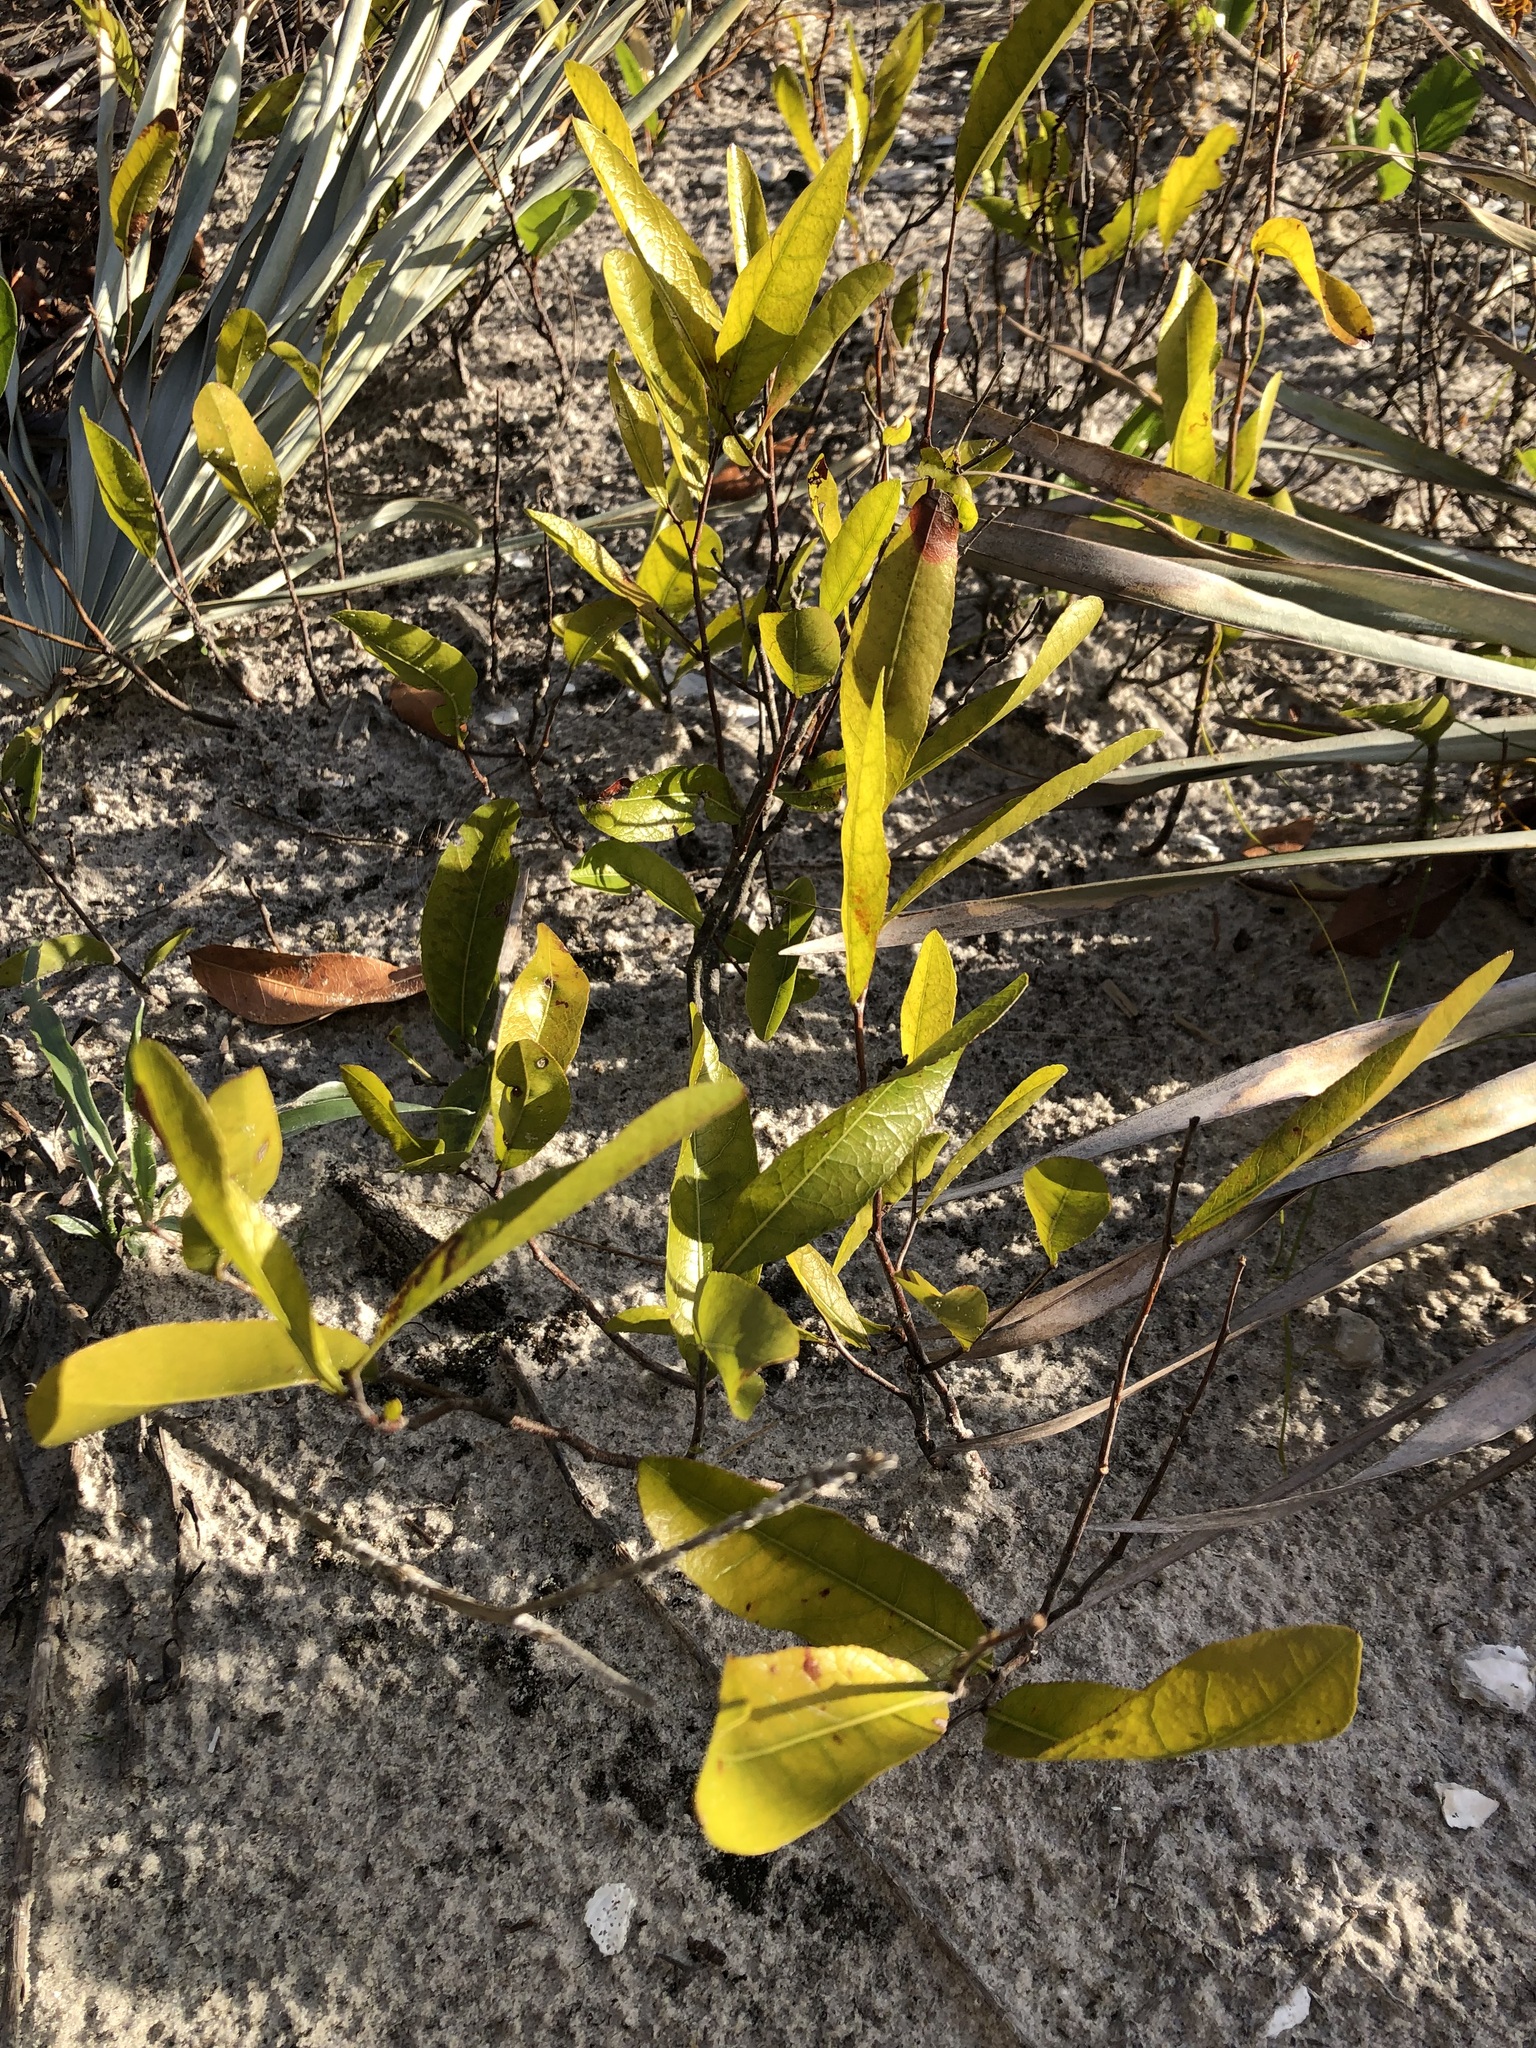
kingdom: Plantae
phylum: Tracheophyta
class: Magnoliopsida
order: Malpighiales
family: Chrysobalanaceae
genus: Geobalanus
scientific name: Geobalanus oblongifolius
